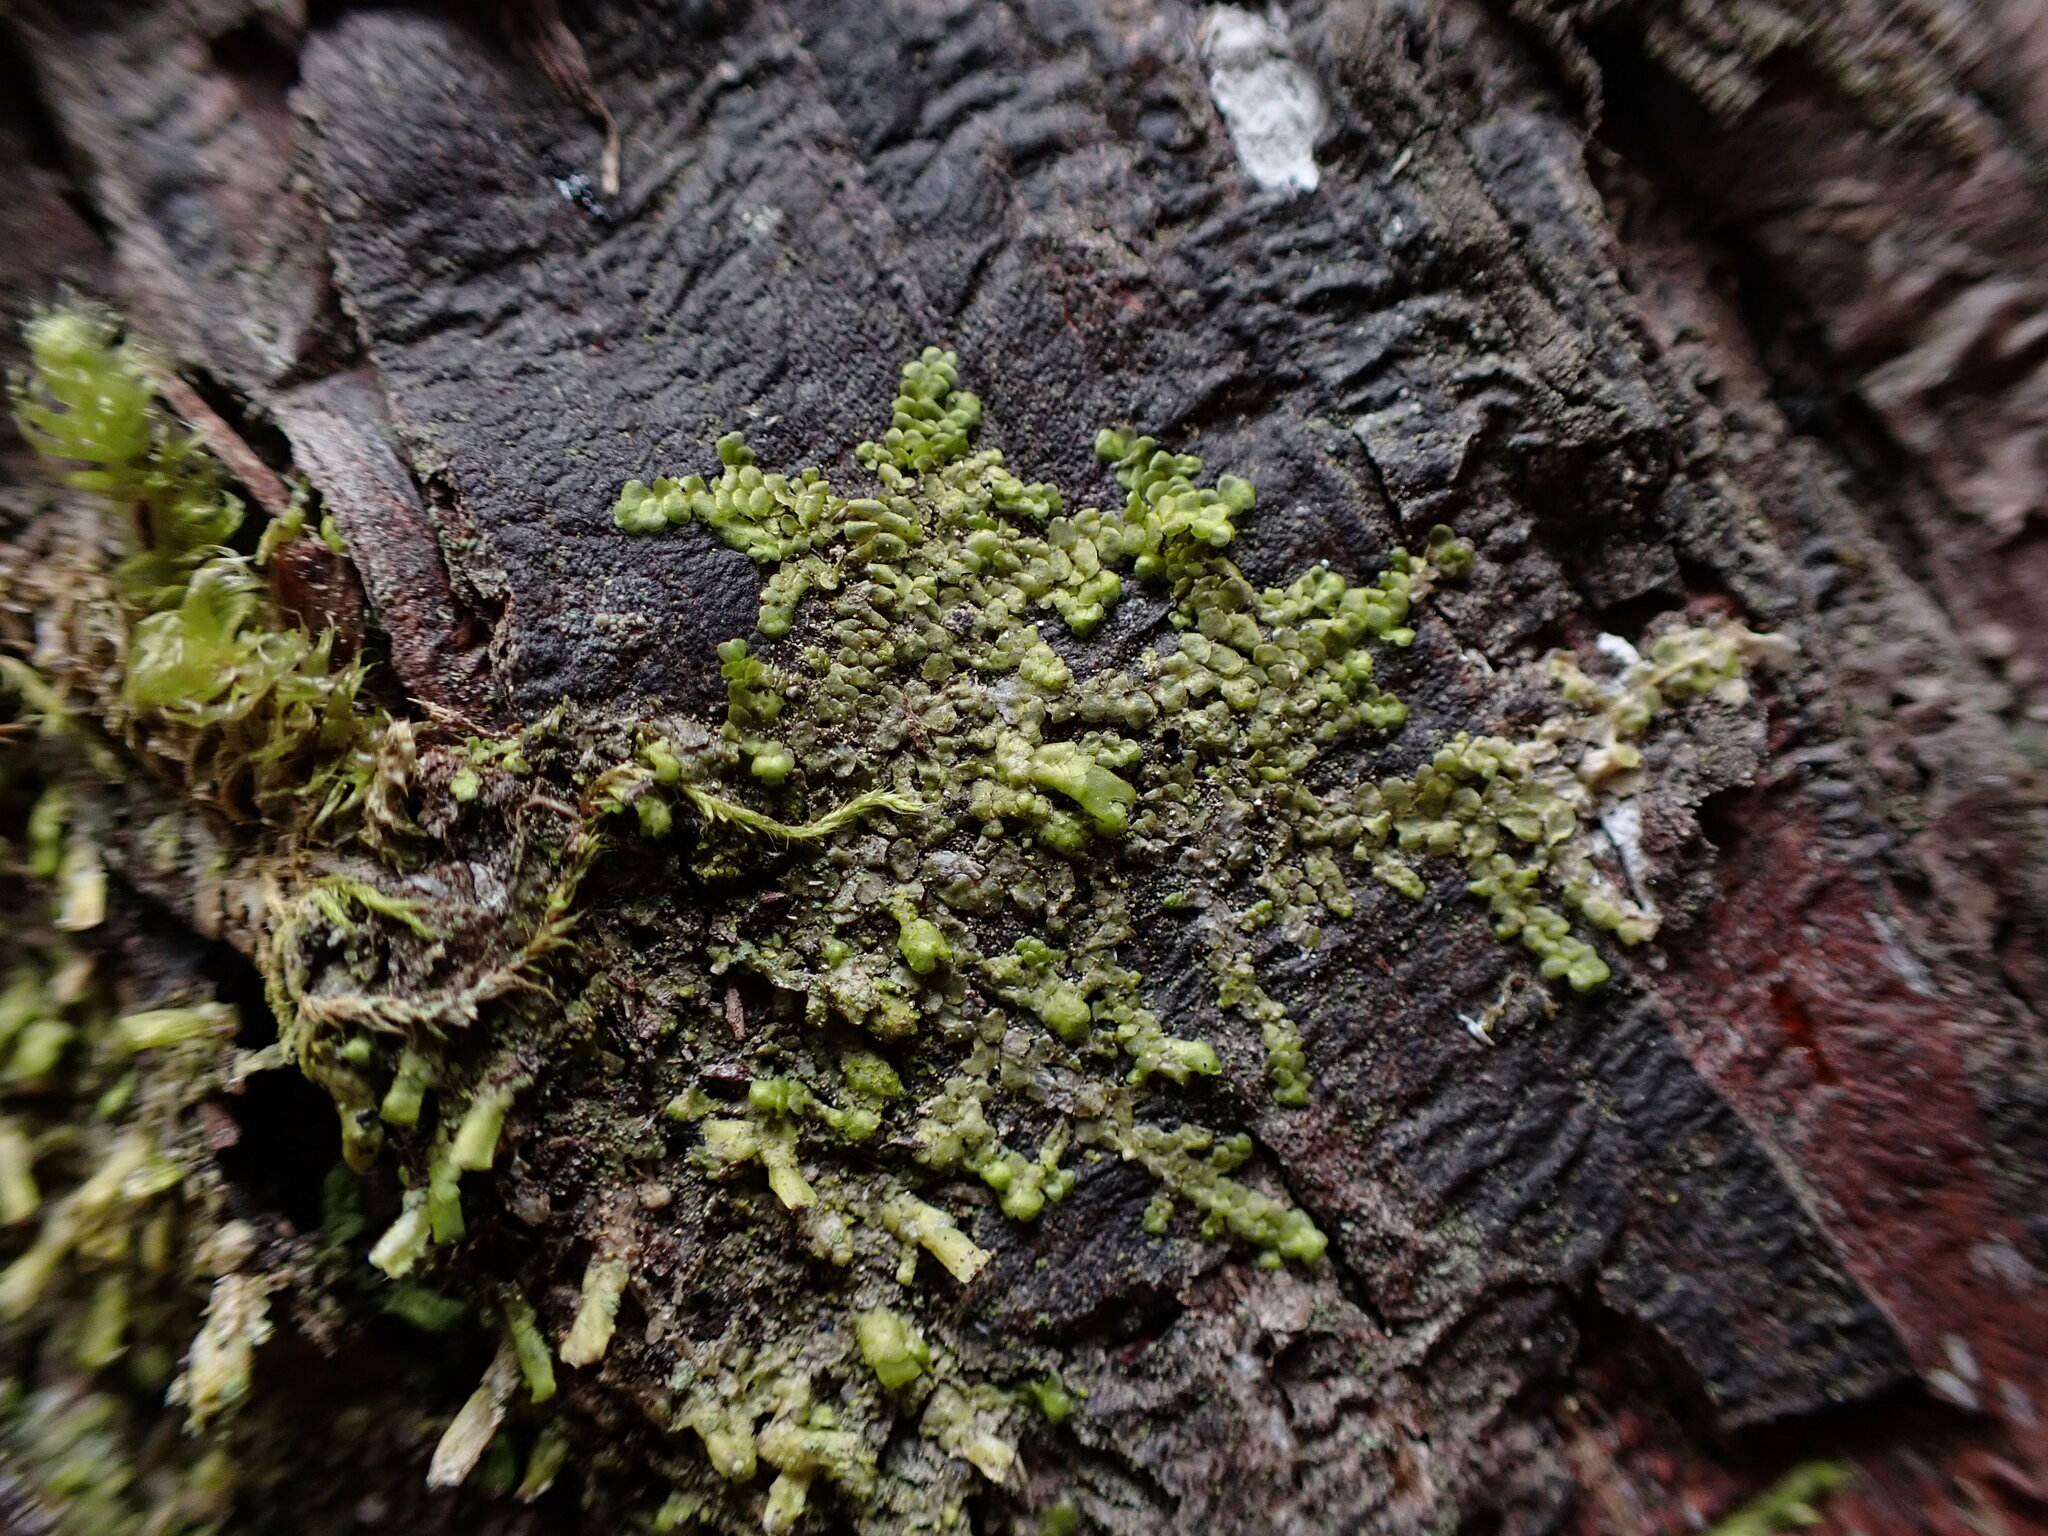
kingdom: Plantae
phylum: Marchantiophyta
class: Jungermanniopsida
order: Porellales
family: Radulaceae
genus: Radula
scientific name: Radula complanata
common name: Flat-leaved scalewort
